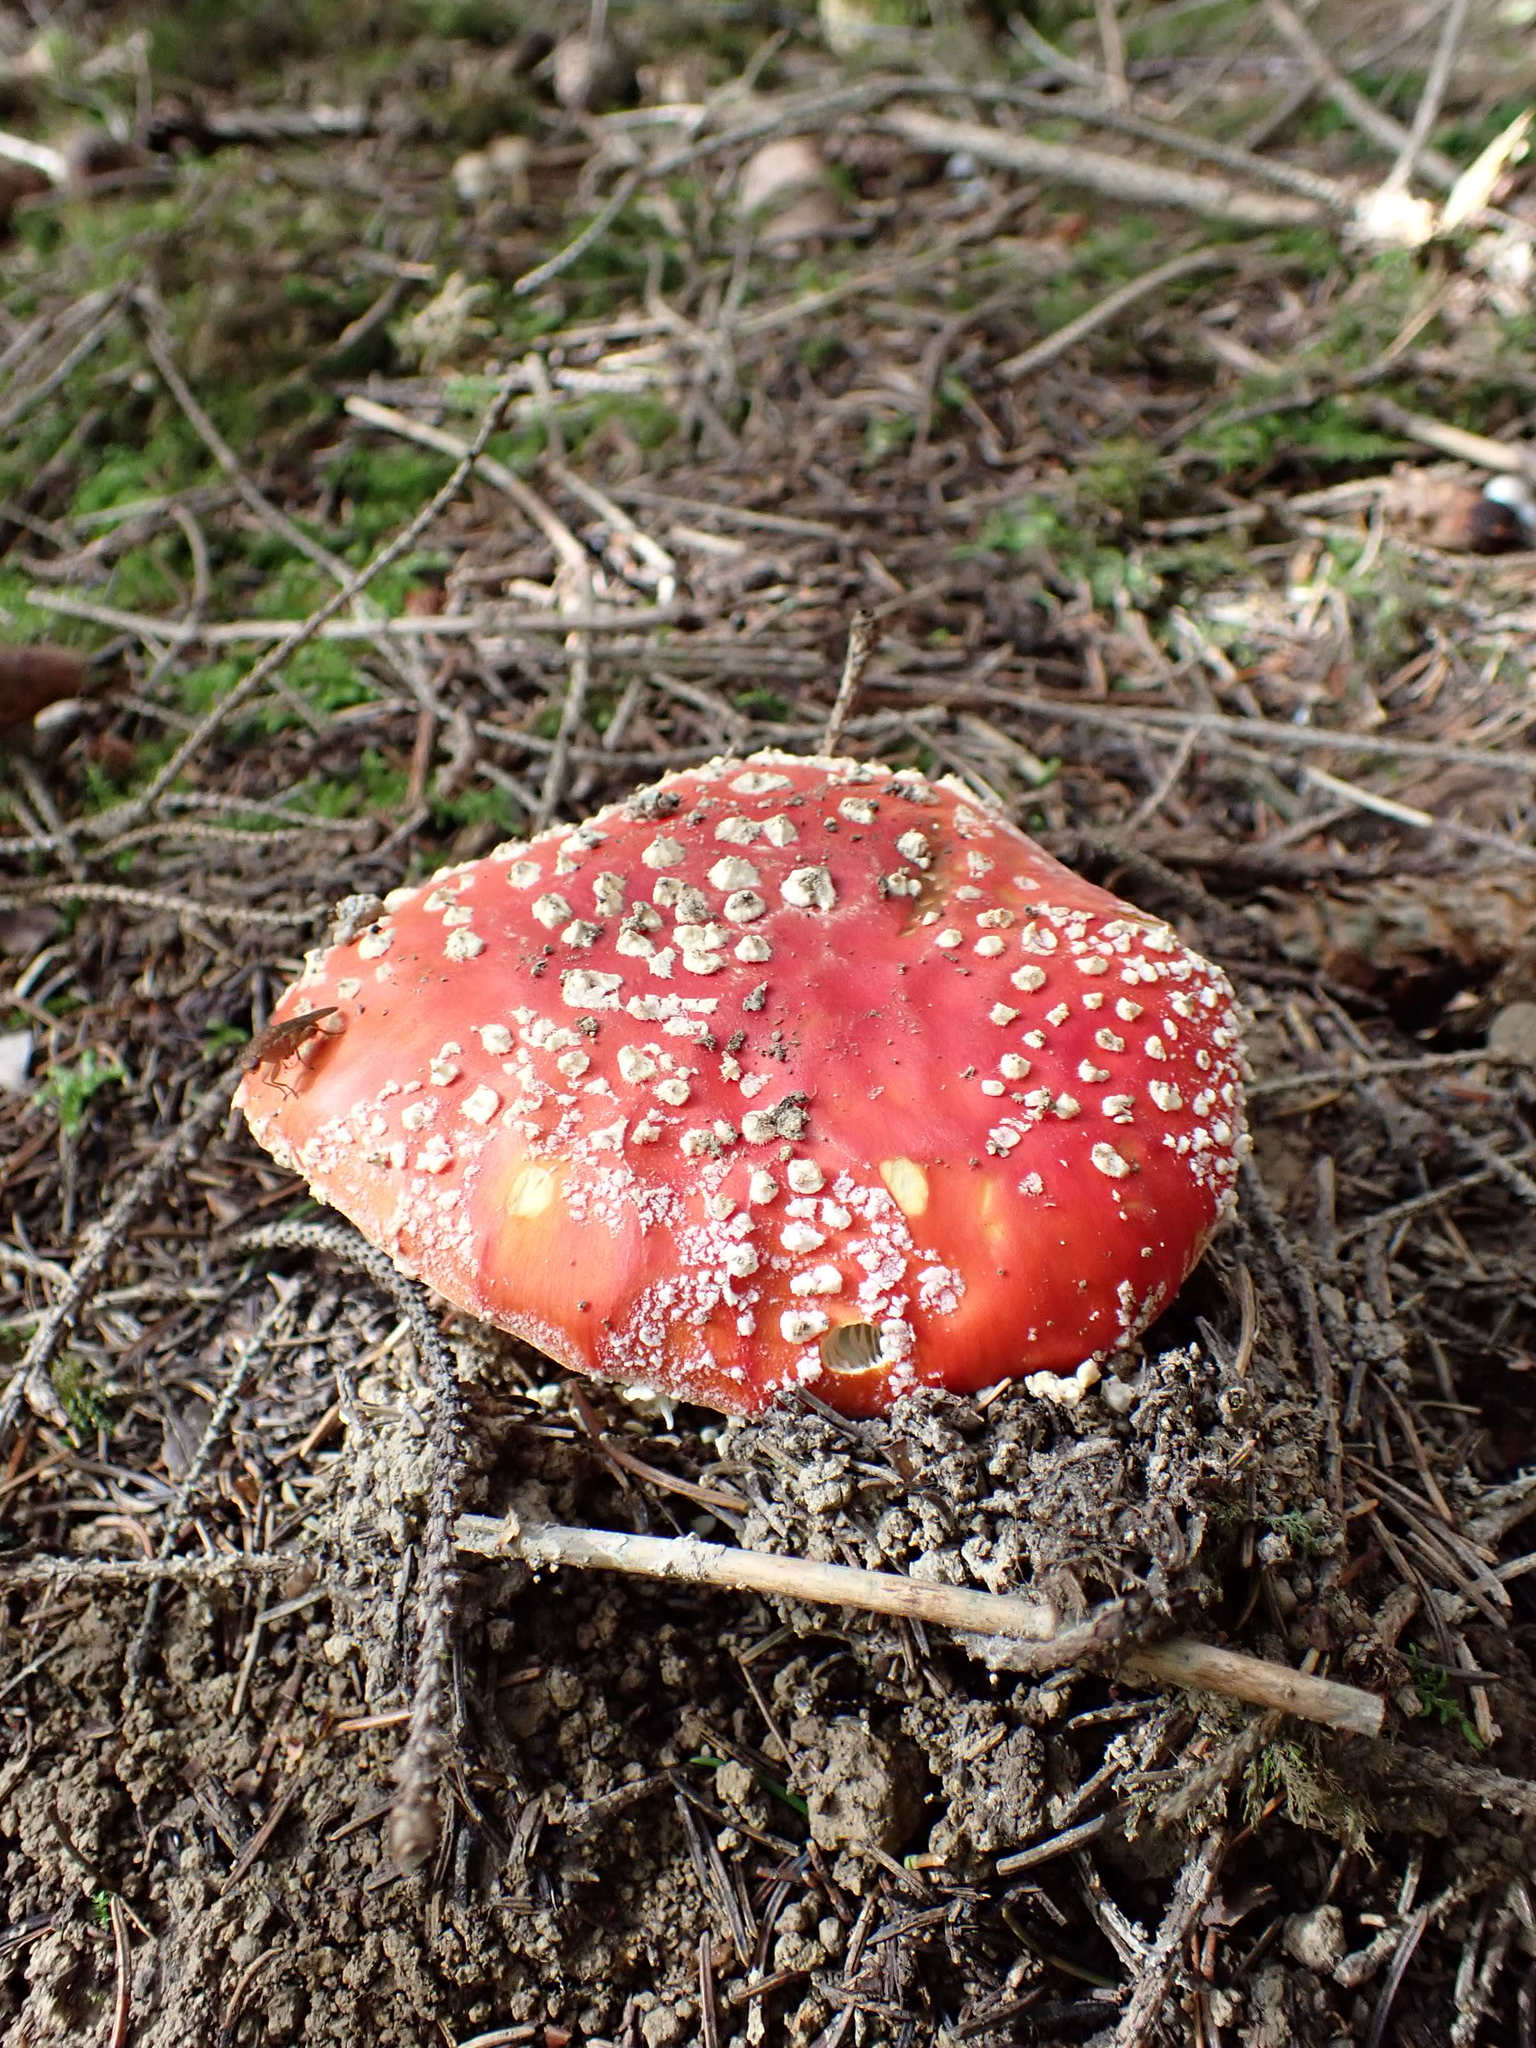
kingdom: Fungi
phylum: Basidiomycota
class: Agaricomycetes
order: Agaricales
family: Amanitaceae
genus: Amanita
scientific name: Amanita muscaria
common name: Fly agaric
